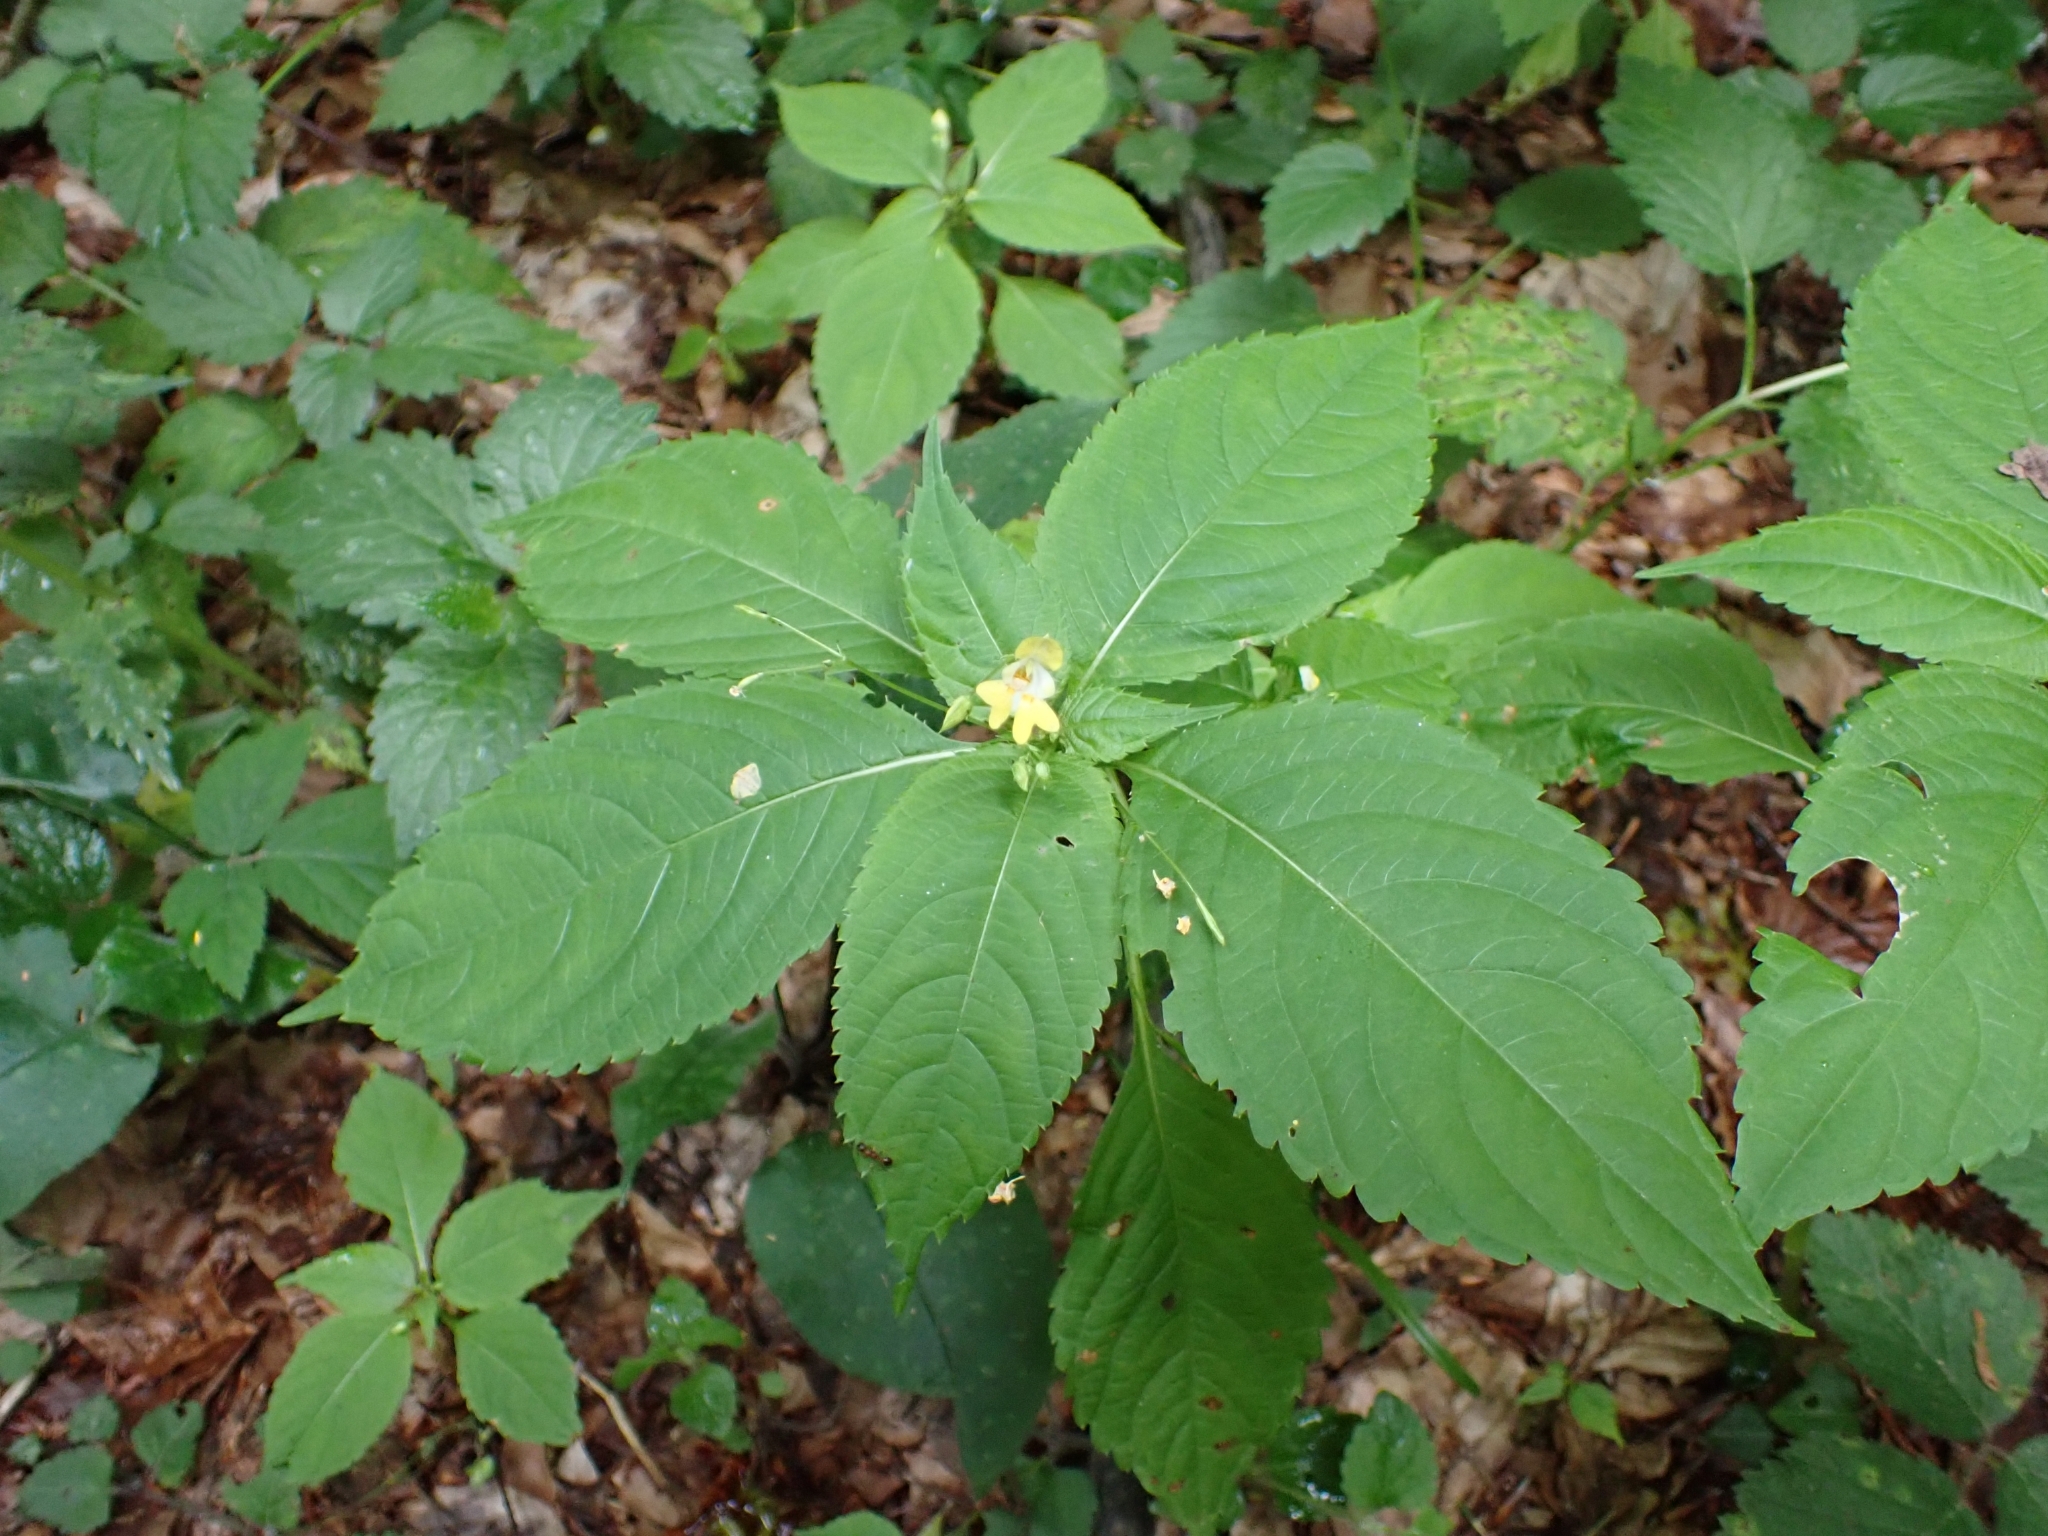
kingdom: Plantae
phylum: Tracheophyta
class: Magnoliopsida
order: Ericales
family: Balsaminaceae
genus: Impatiens
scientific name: Impatiens parviflora
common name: Small balsam
